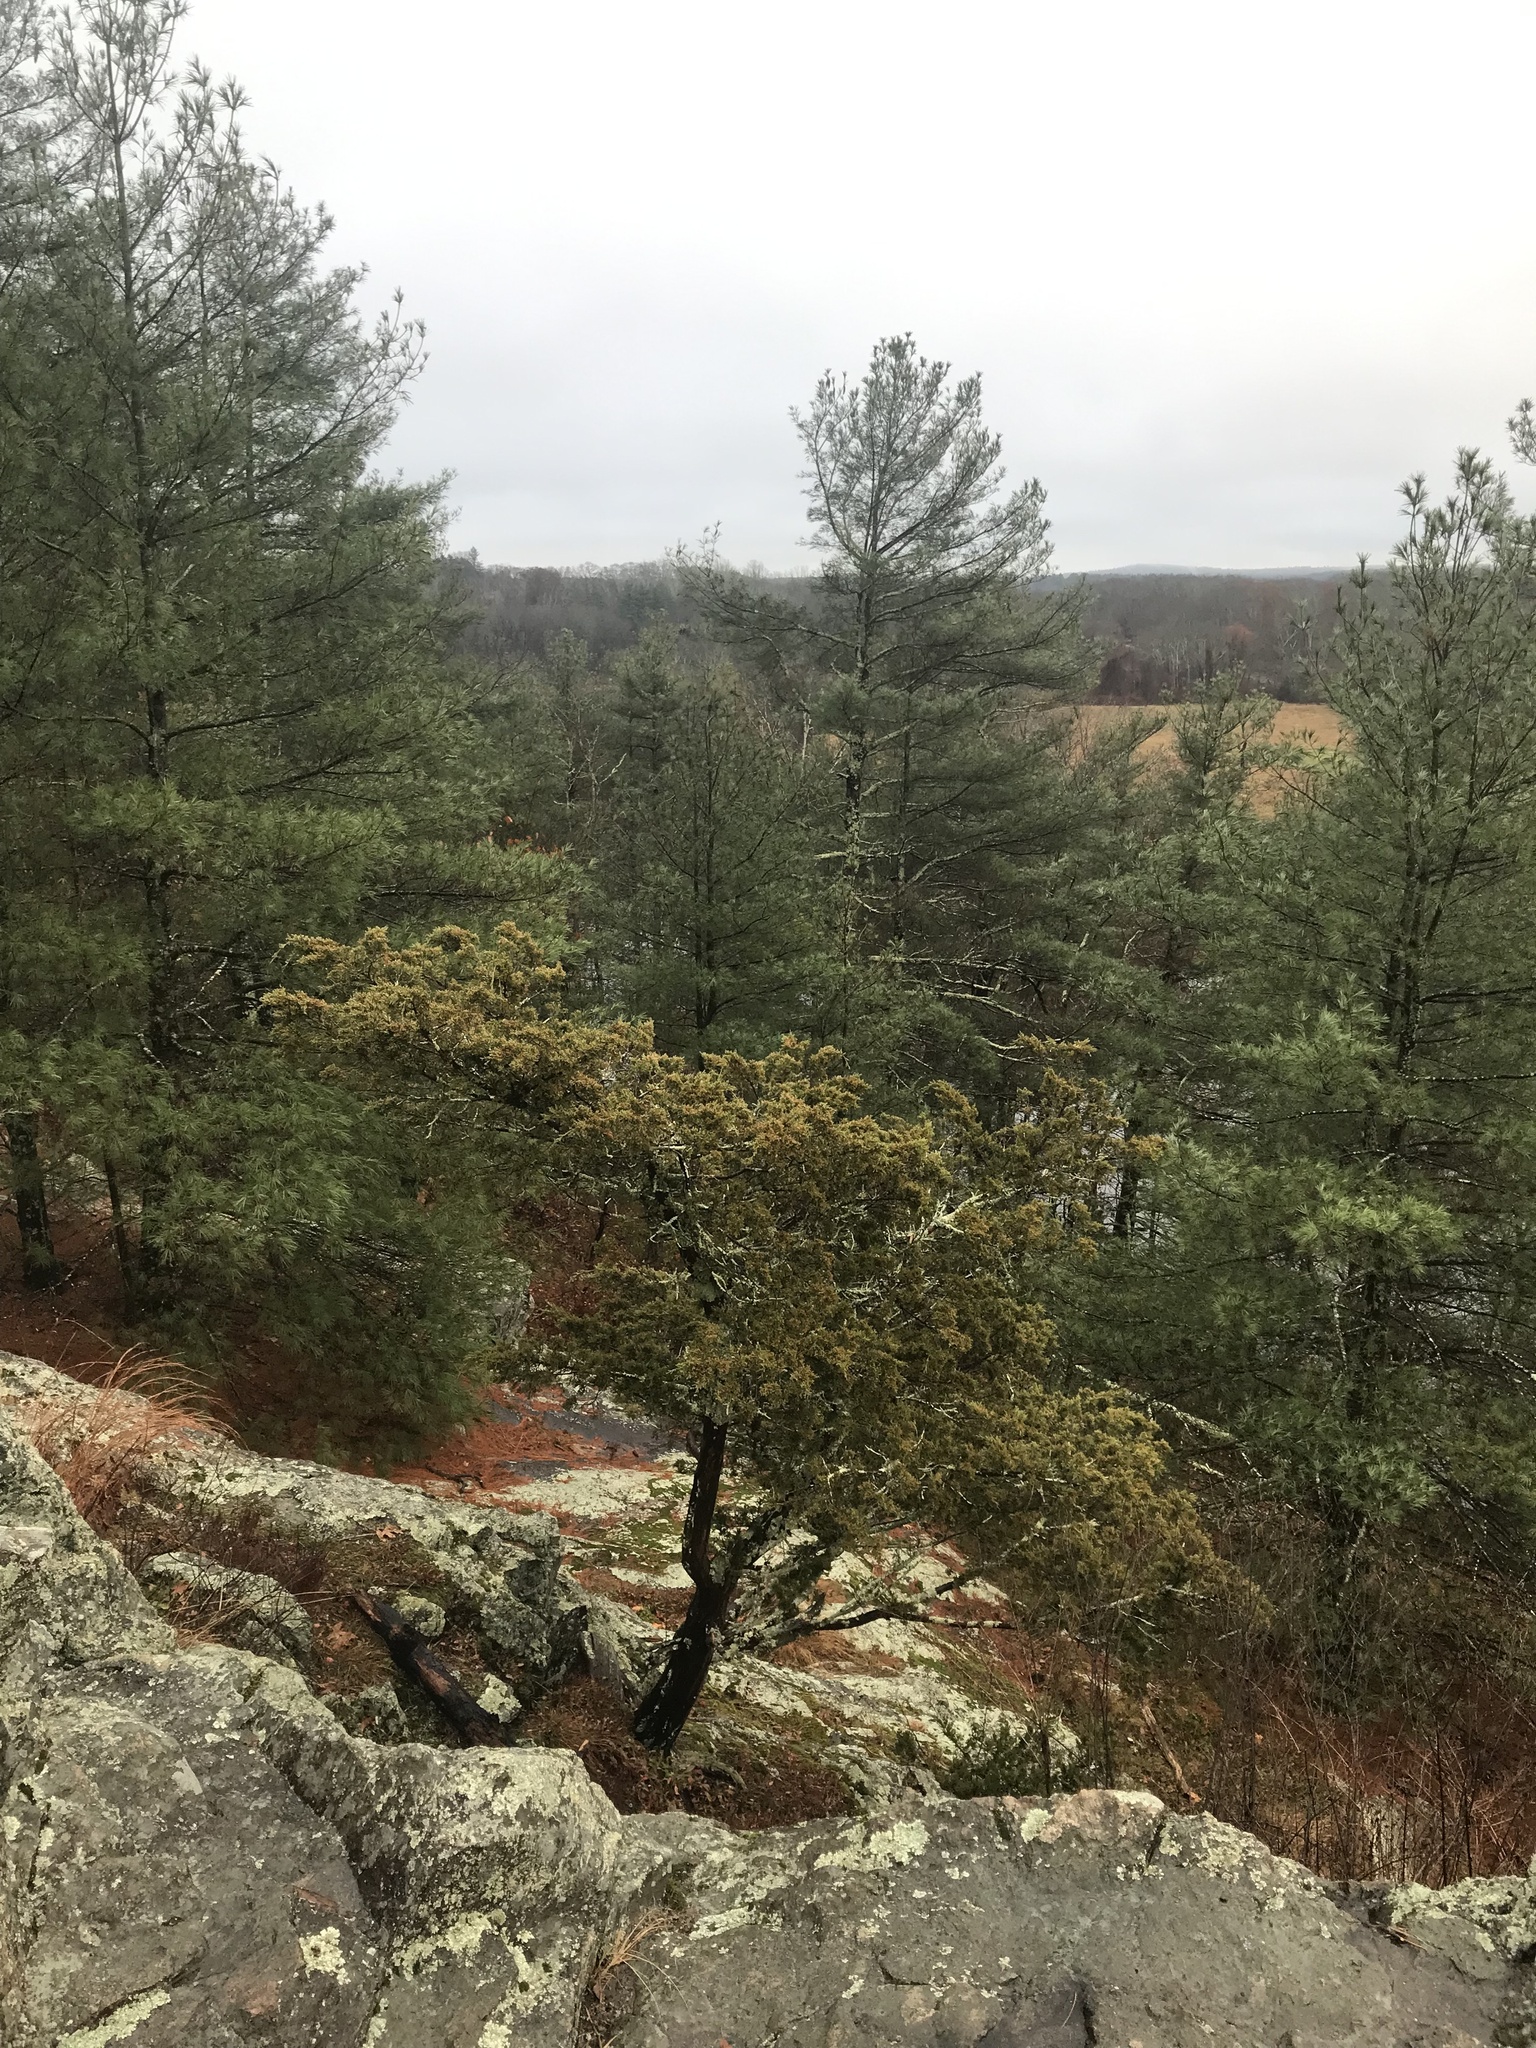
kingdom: Plantae
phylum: Tracheophyta
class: Pinopsida
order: Pinales
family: Cupressaceae
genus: Juniperus
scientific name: Juniperus virginiana
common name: Red juniper
